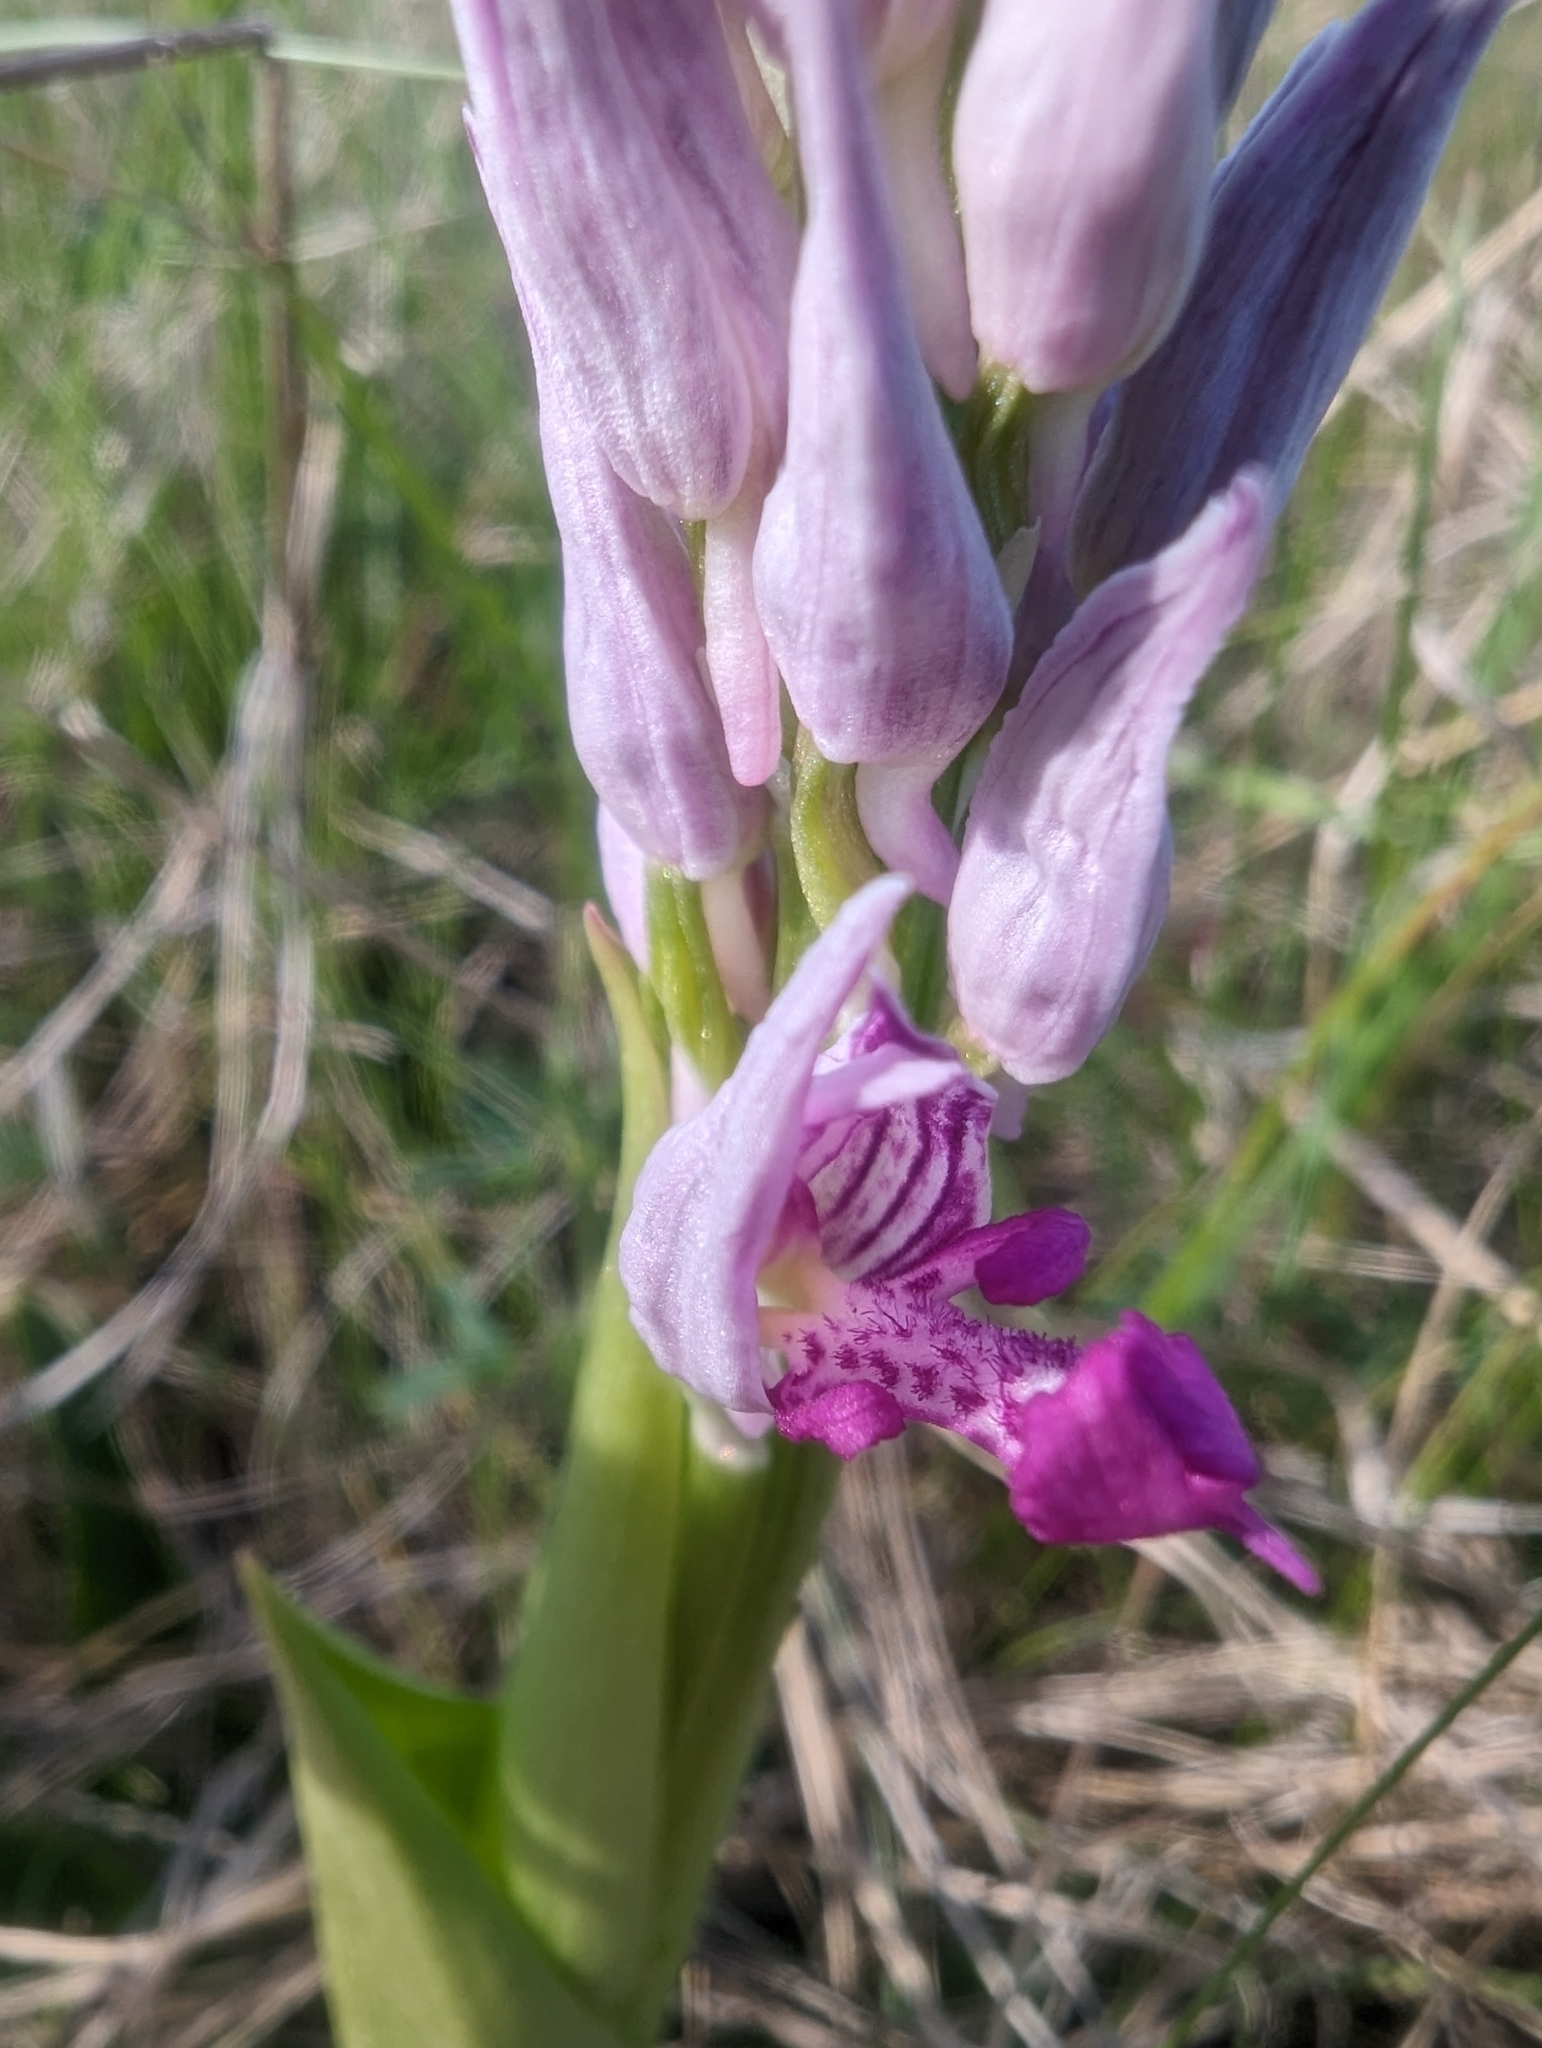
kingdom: Plantae
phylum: Tracheophyta
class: Liliopsida
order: Asparagales
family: Orchidaceae
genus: Orchis
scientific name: Orchis militaris
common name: Military orchid
